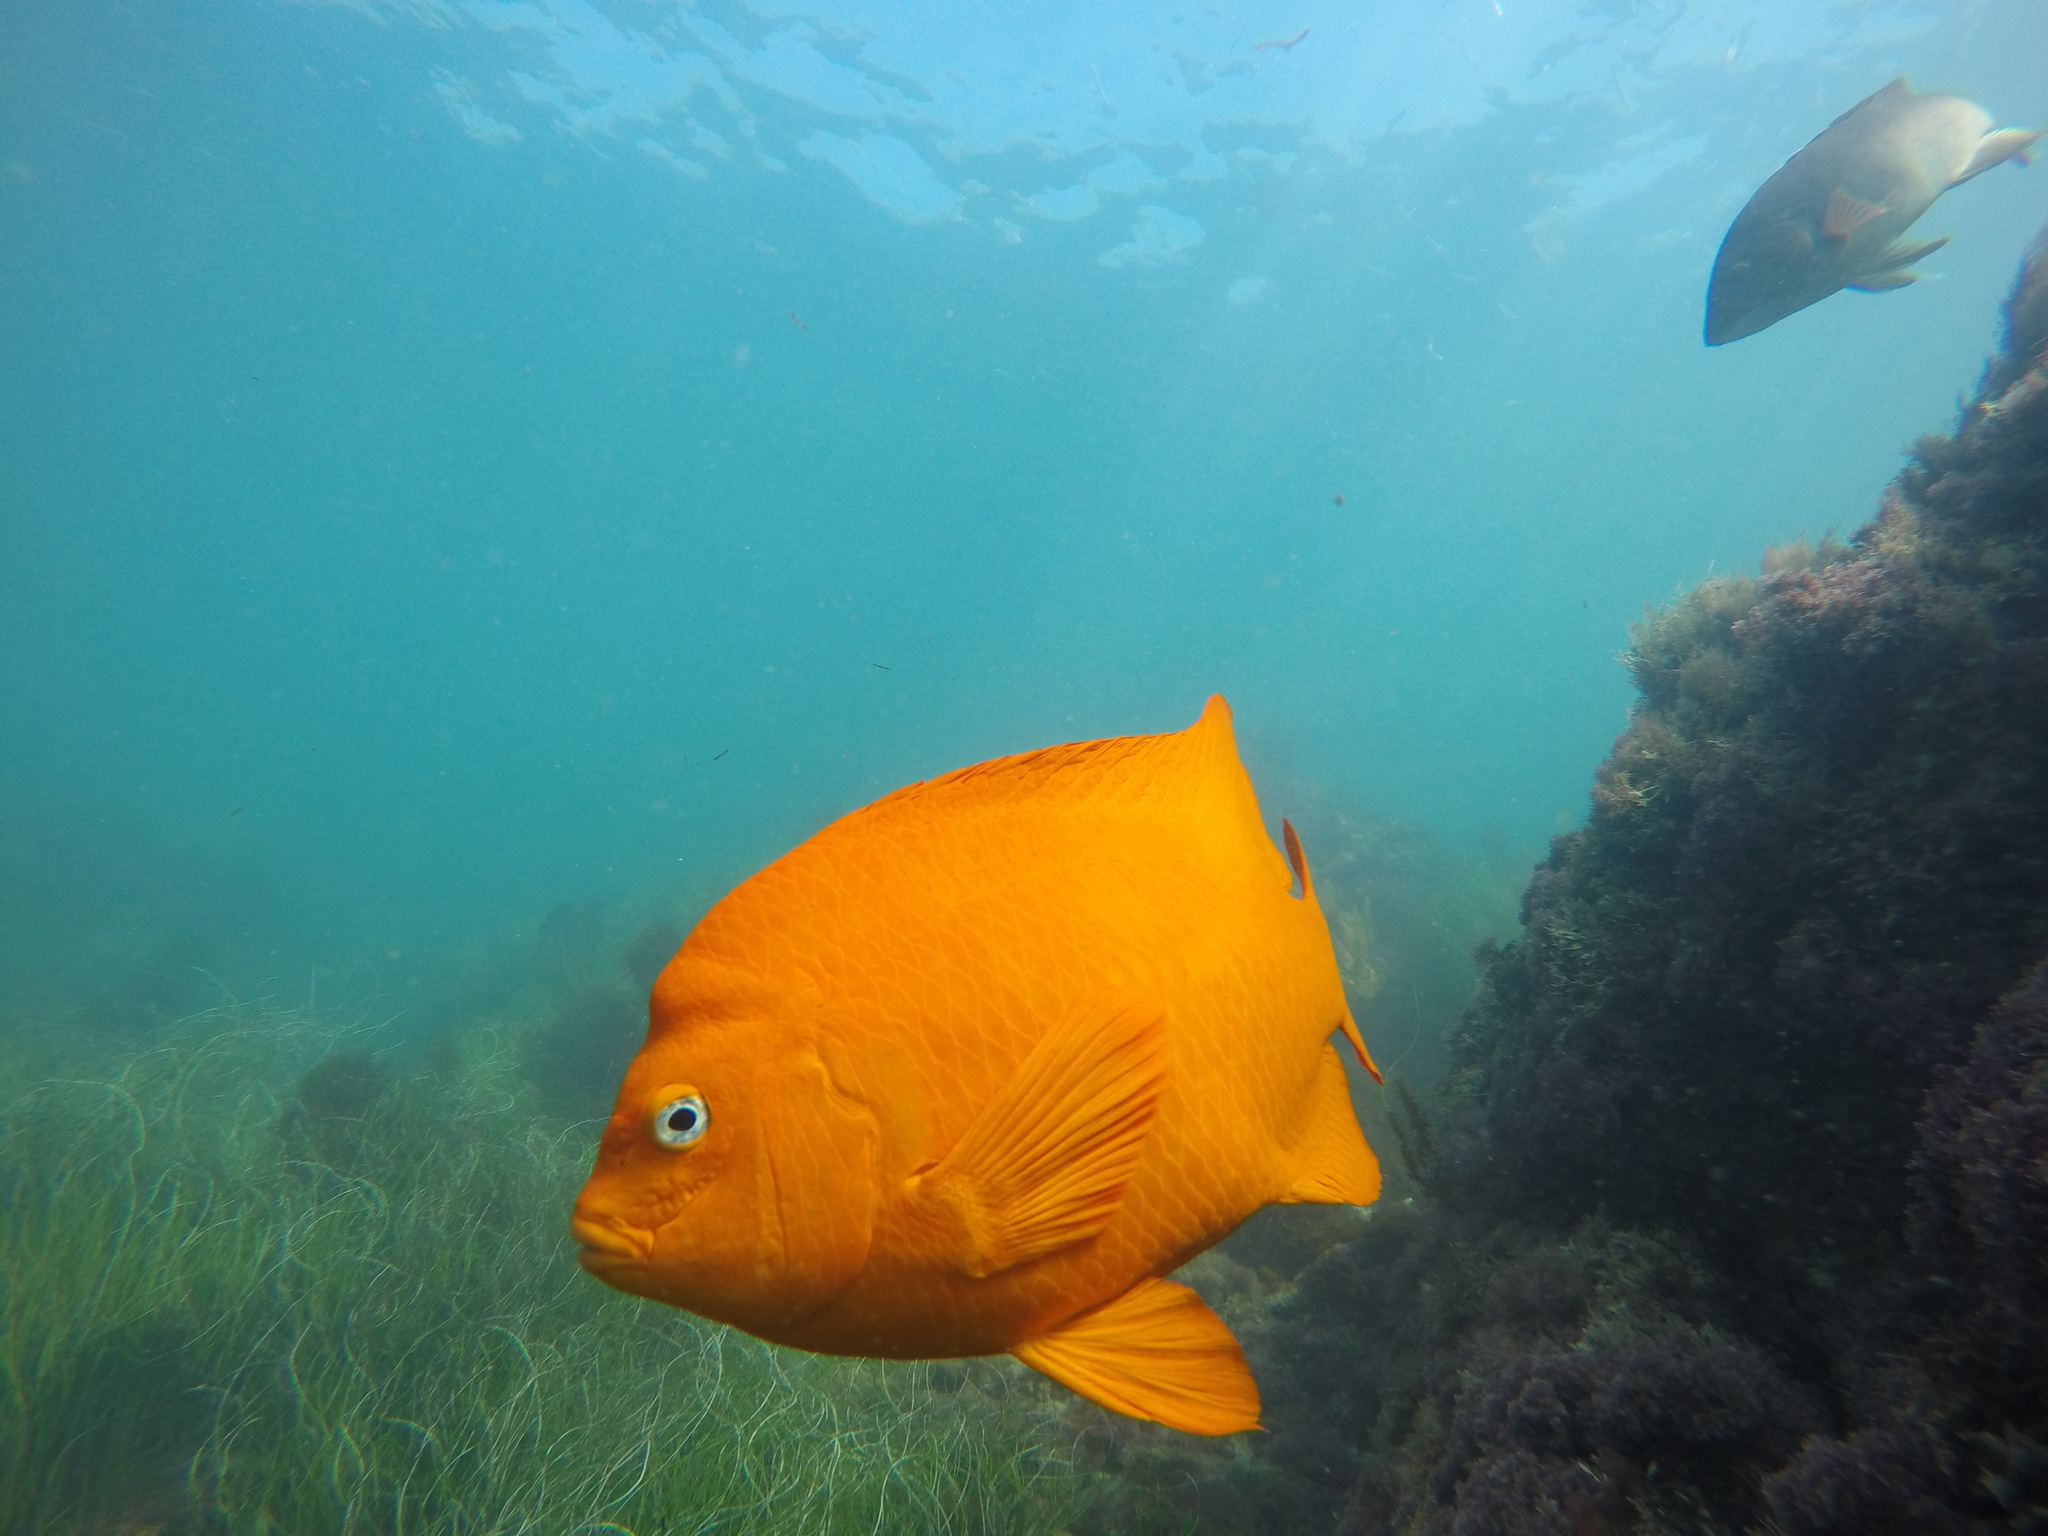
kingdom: Animalia
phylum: Chordata
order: Perciformes
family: Pomacentridae
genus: Hypsypops
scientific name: Hypsypops rubicundus
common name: Garibaldi
